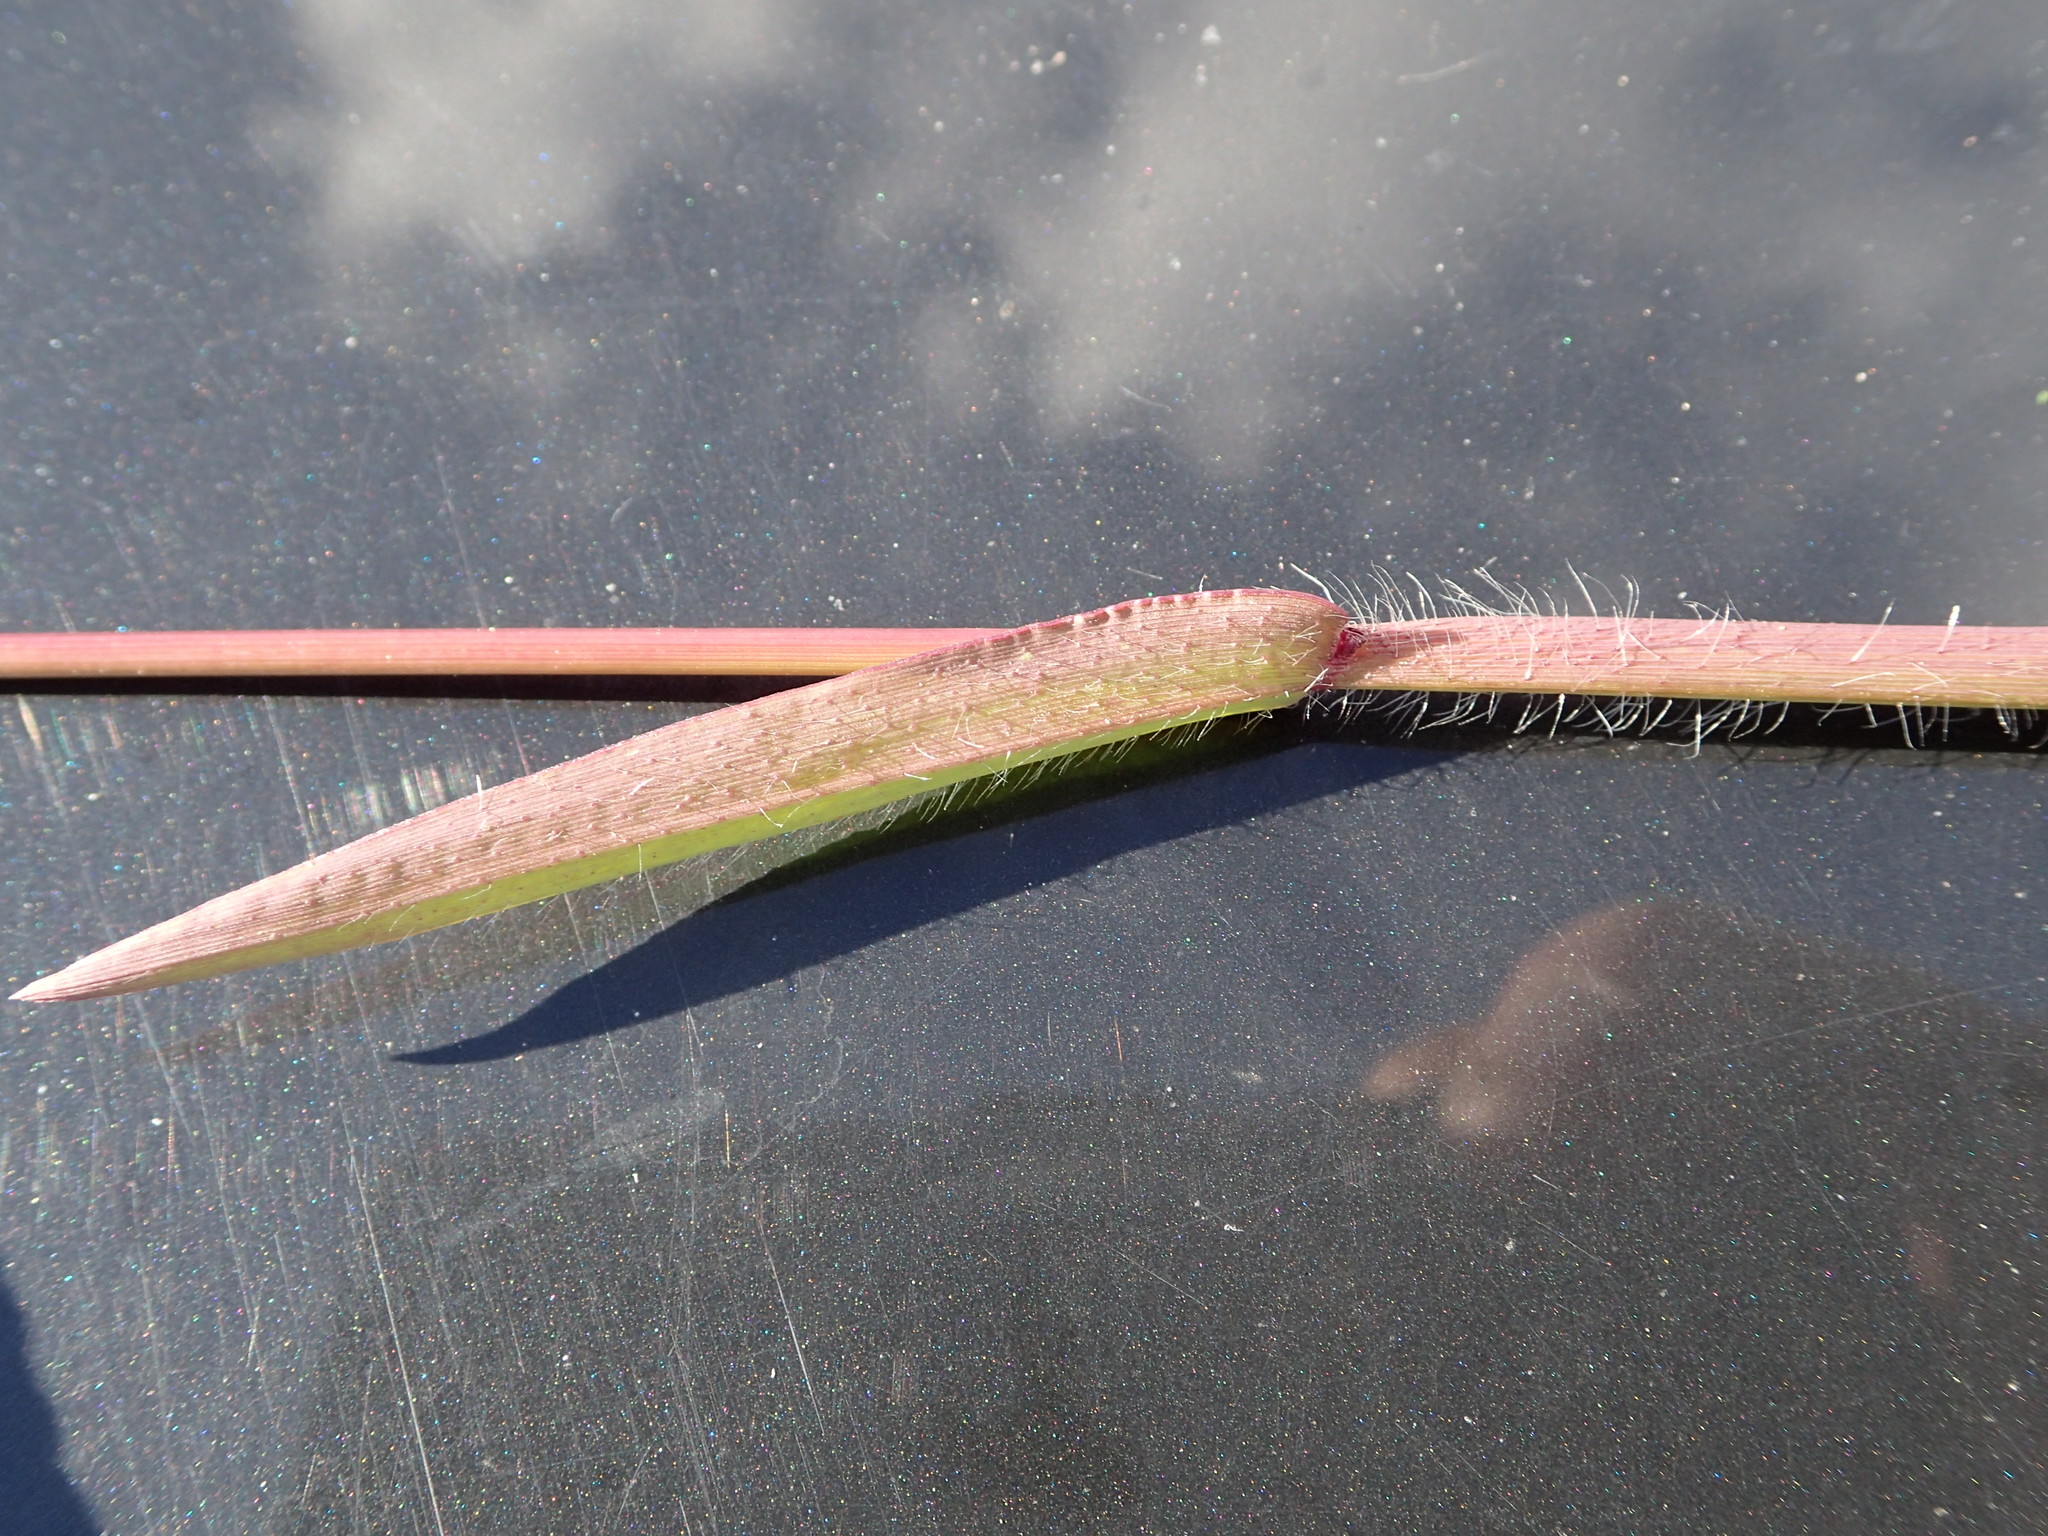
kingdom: Plantae
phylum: Tracheophyta
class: Liliopsida
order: Poales
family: Poaceae
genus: Digitaria
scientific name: Digitaria sanguinalis
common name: Hairy crabgrass
